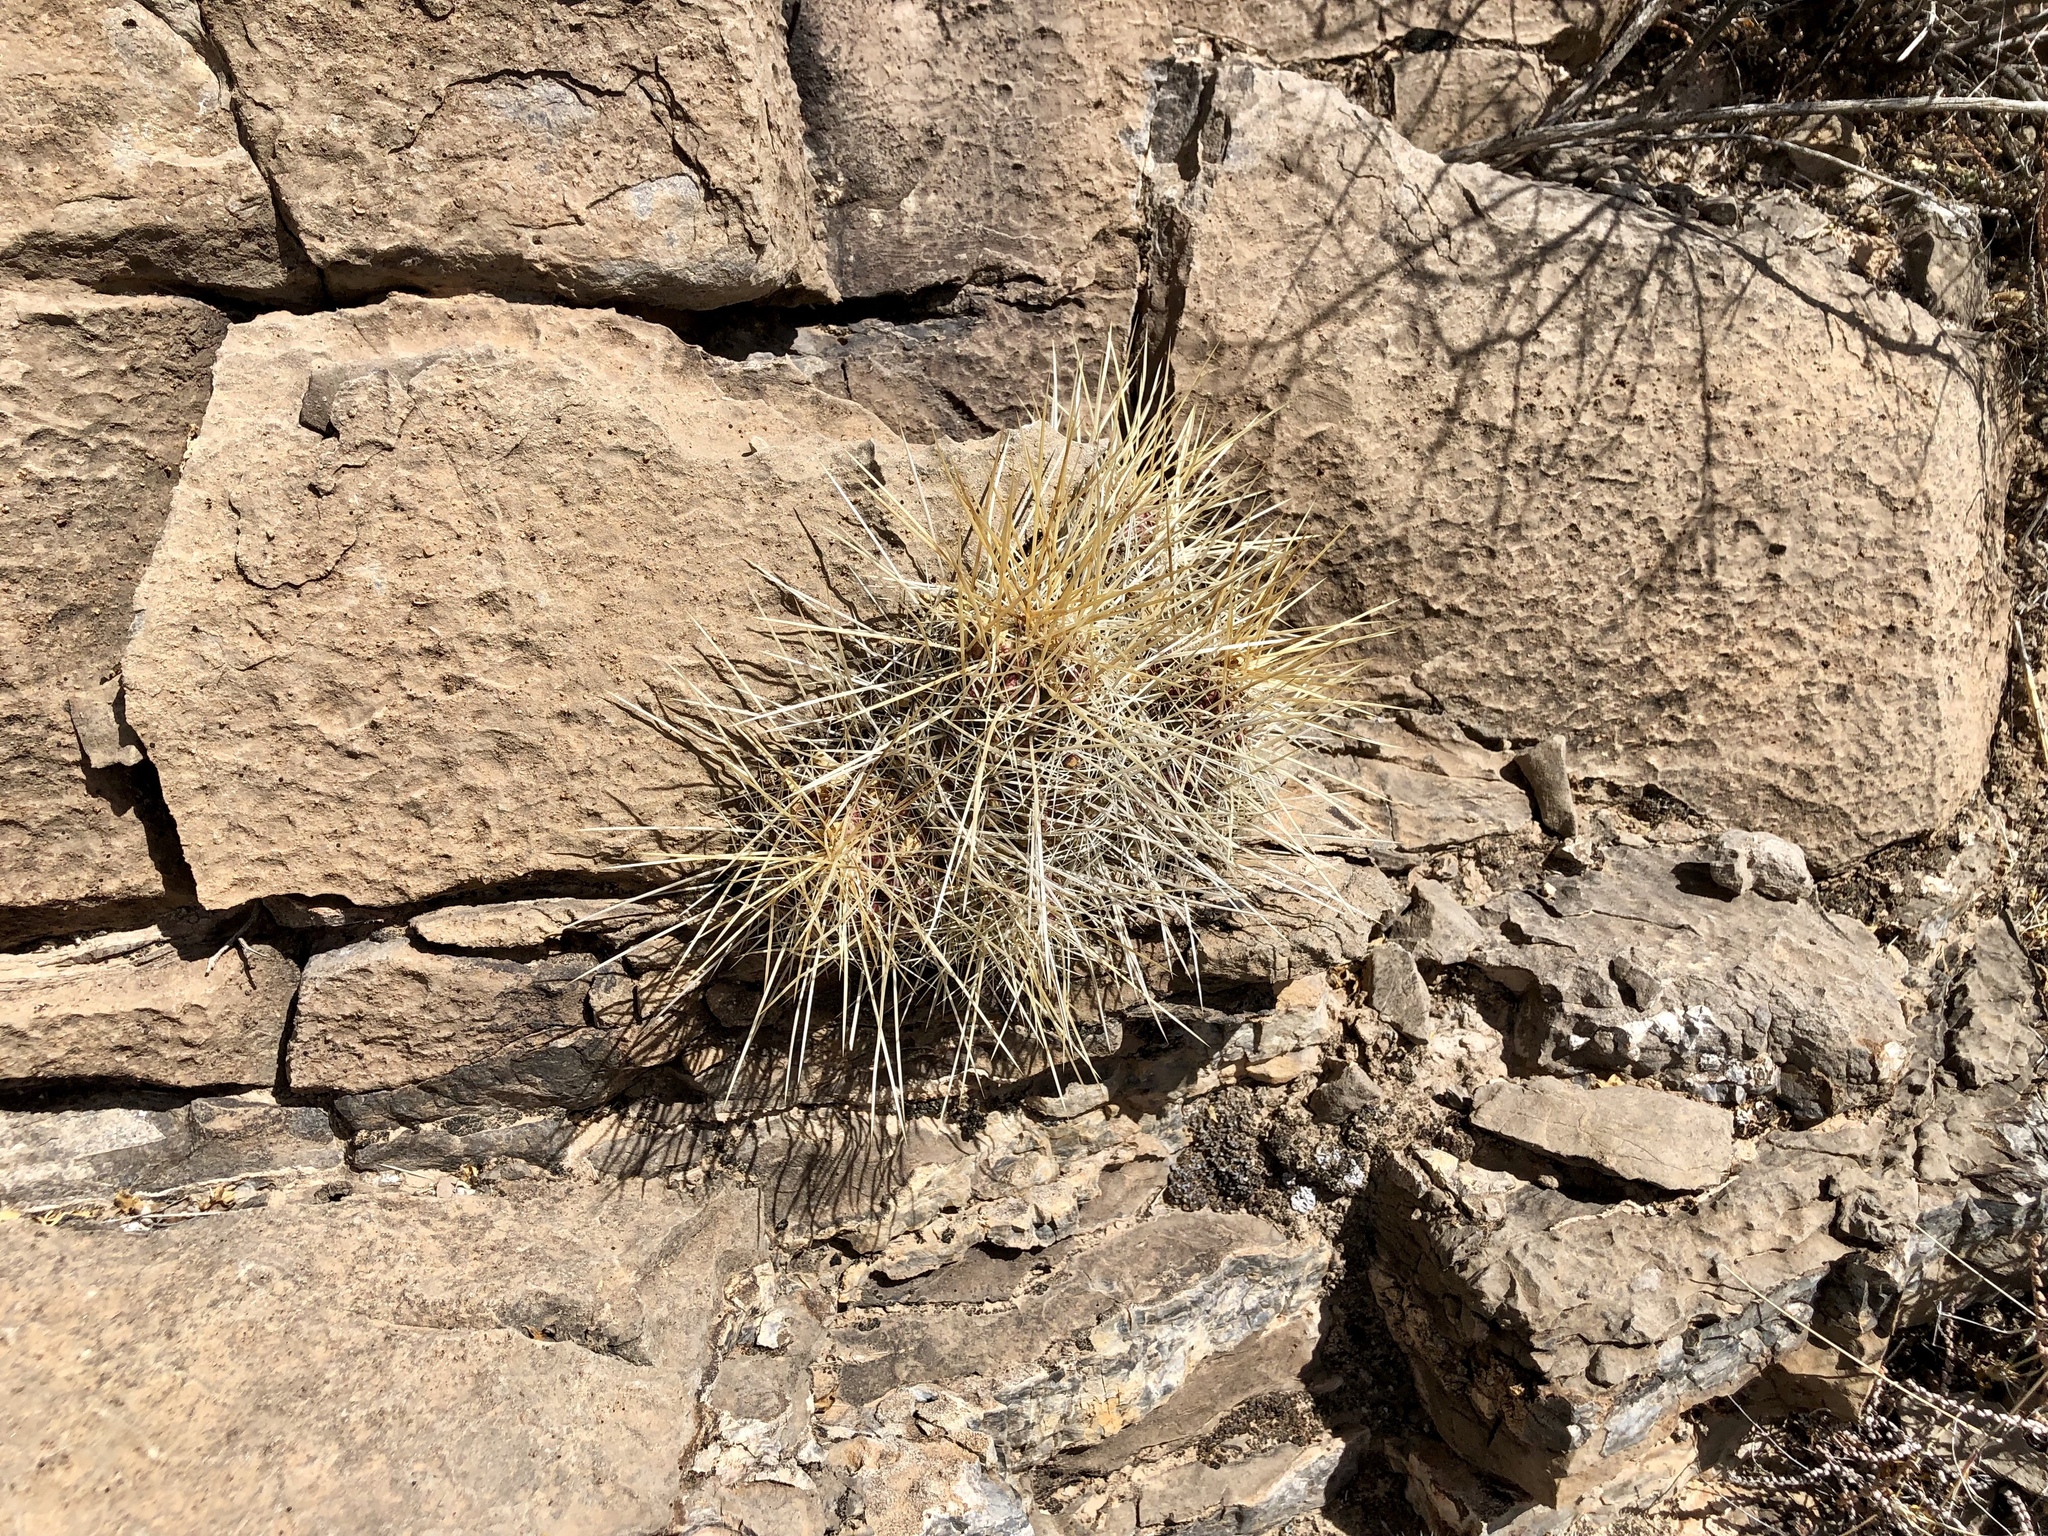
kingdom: Plantae
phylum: Tracheophyta
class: Magnoliopsida
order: Caryophyllales
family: Cactaceae
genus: Echinocereus
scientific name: Echinocereus stramineus
